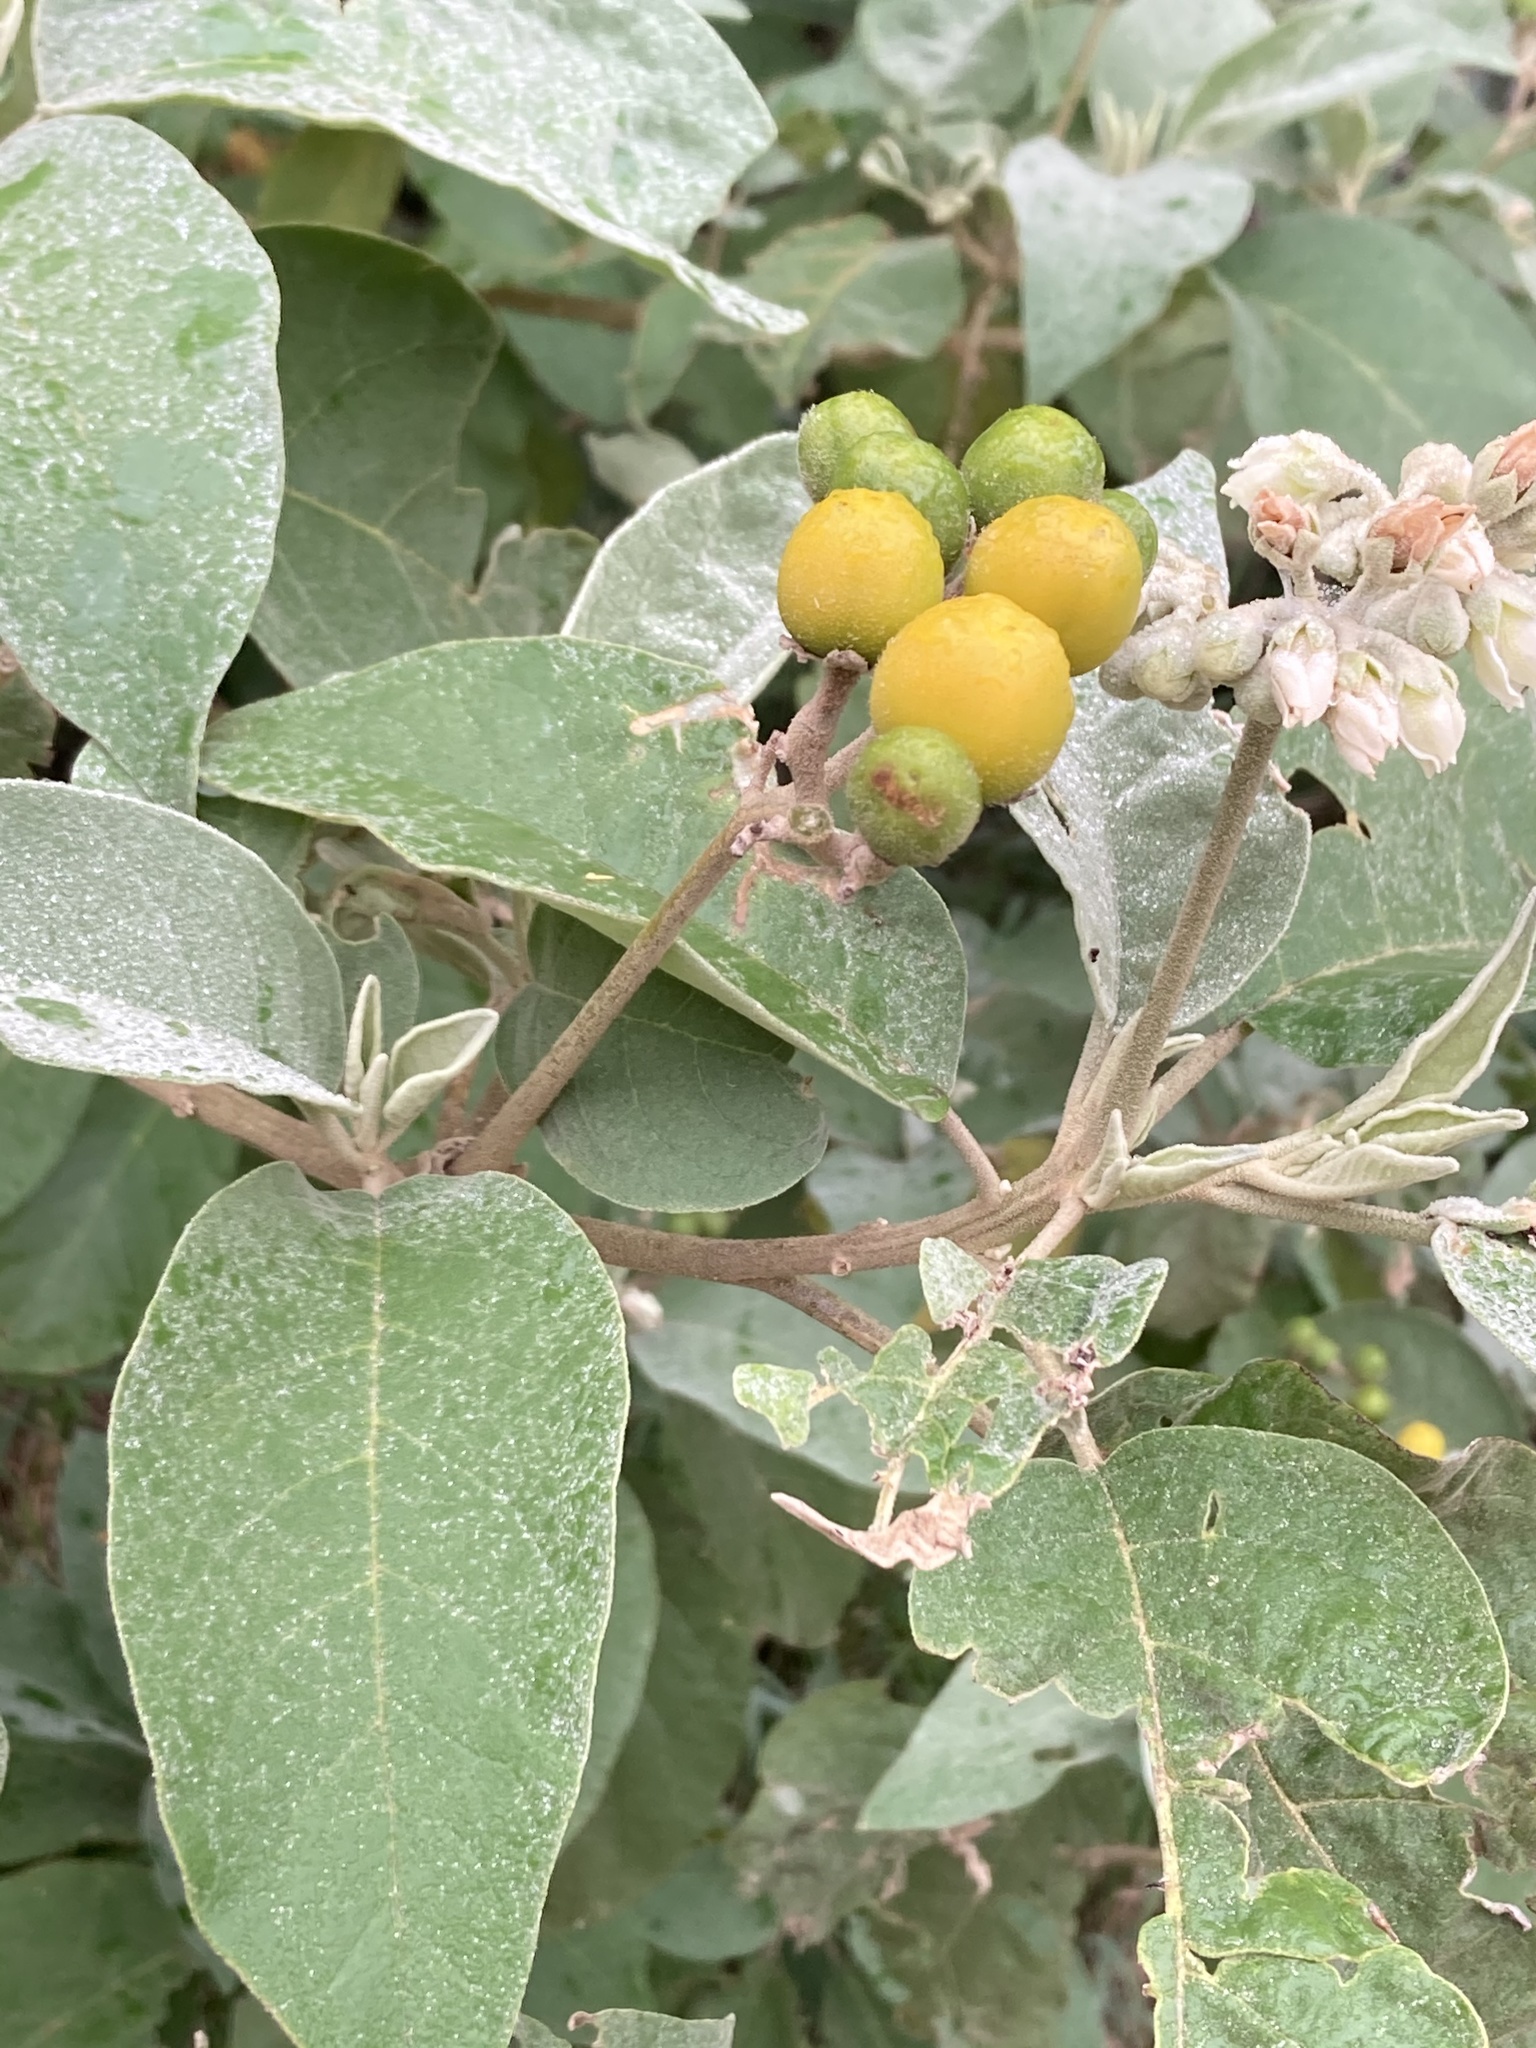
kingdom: Plantae
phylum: Tracheophyta
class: Magnoliopsida
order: Solanales
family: Solanaceae
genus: Solanum
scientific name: Solanum erianthum
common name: Tobacco-tree
